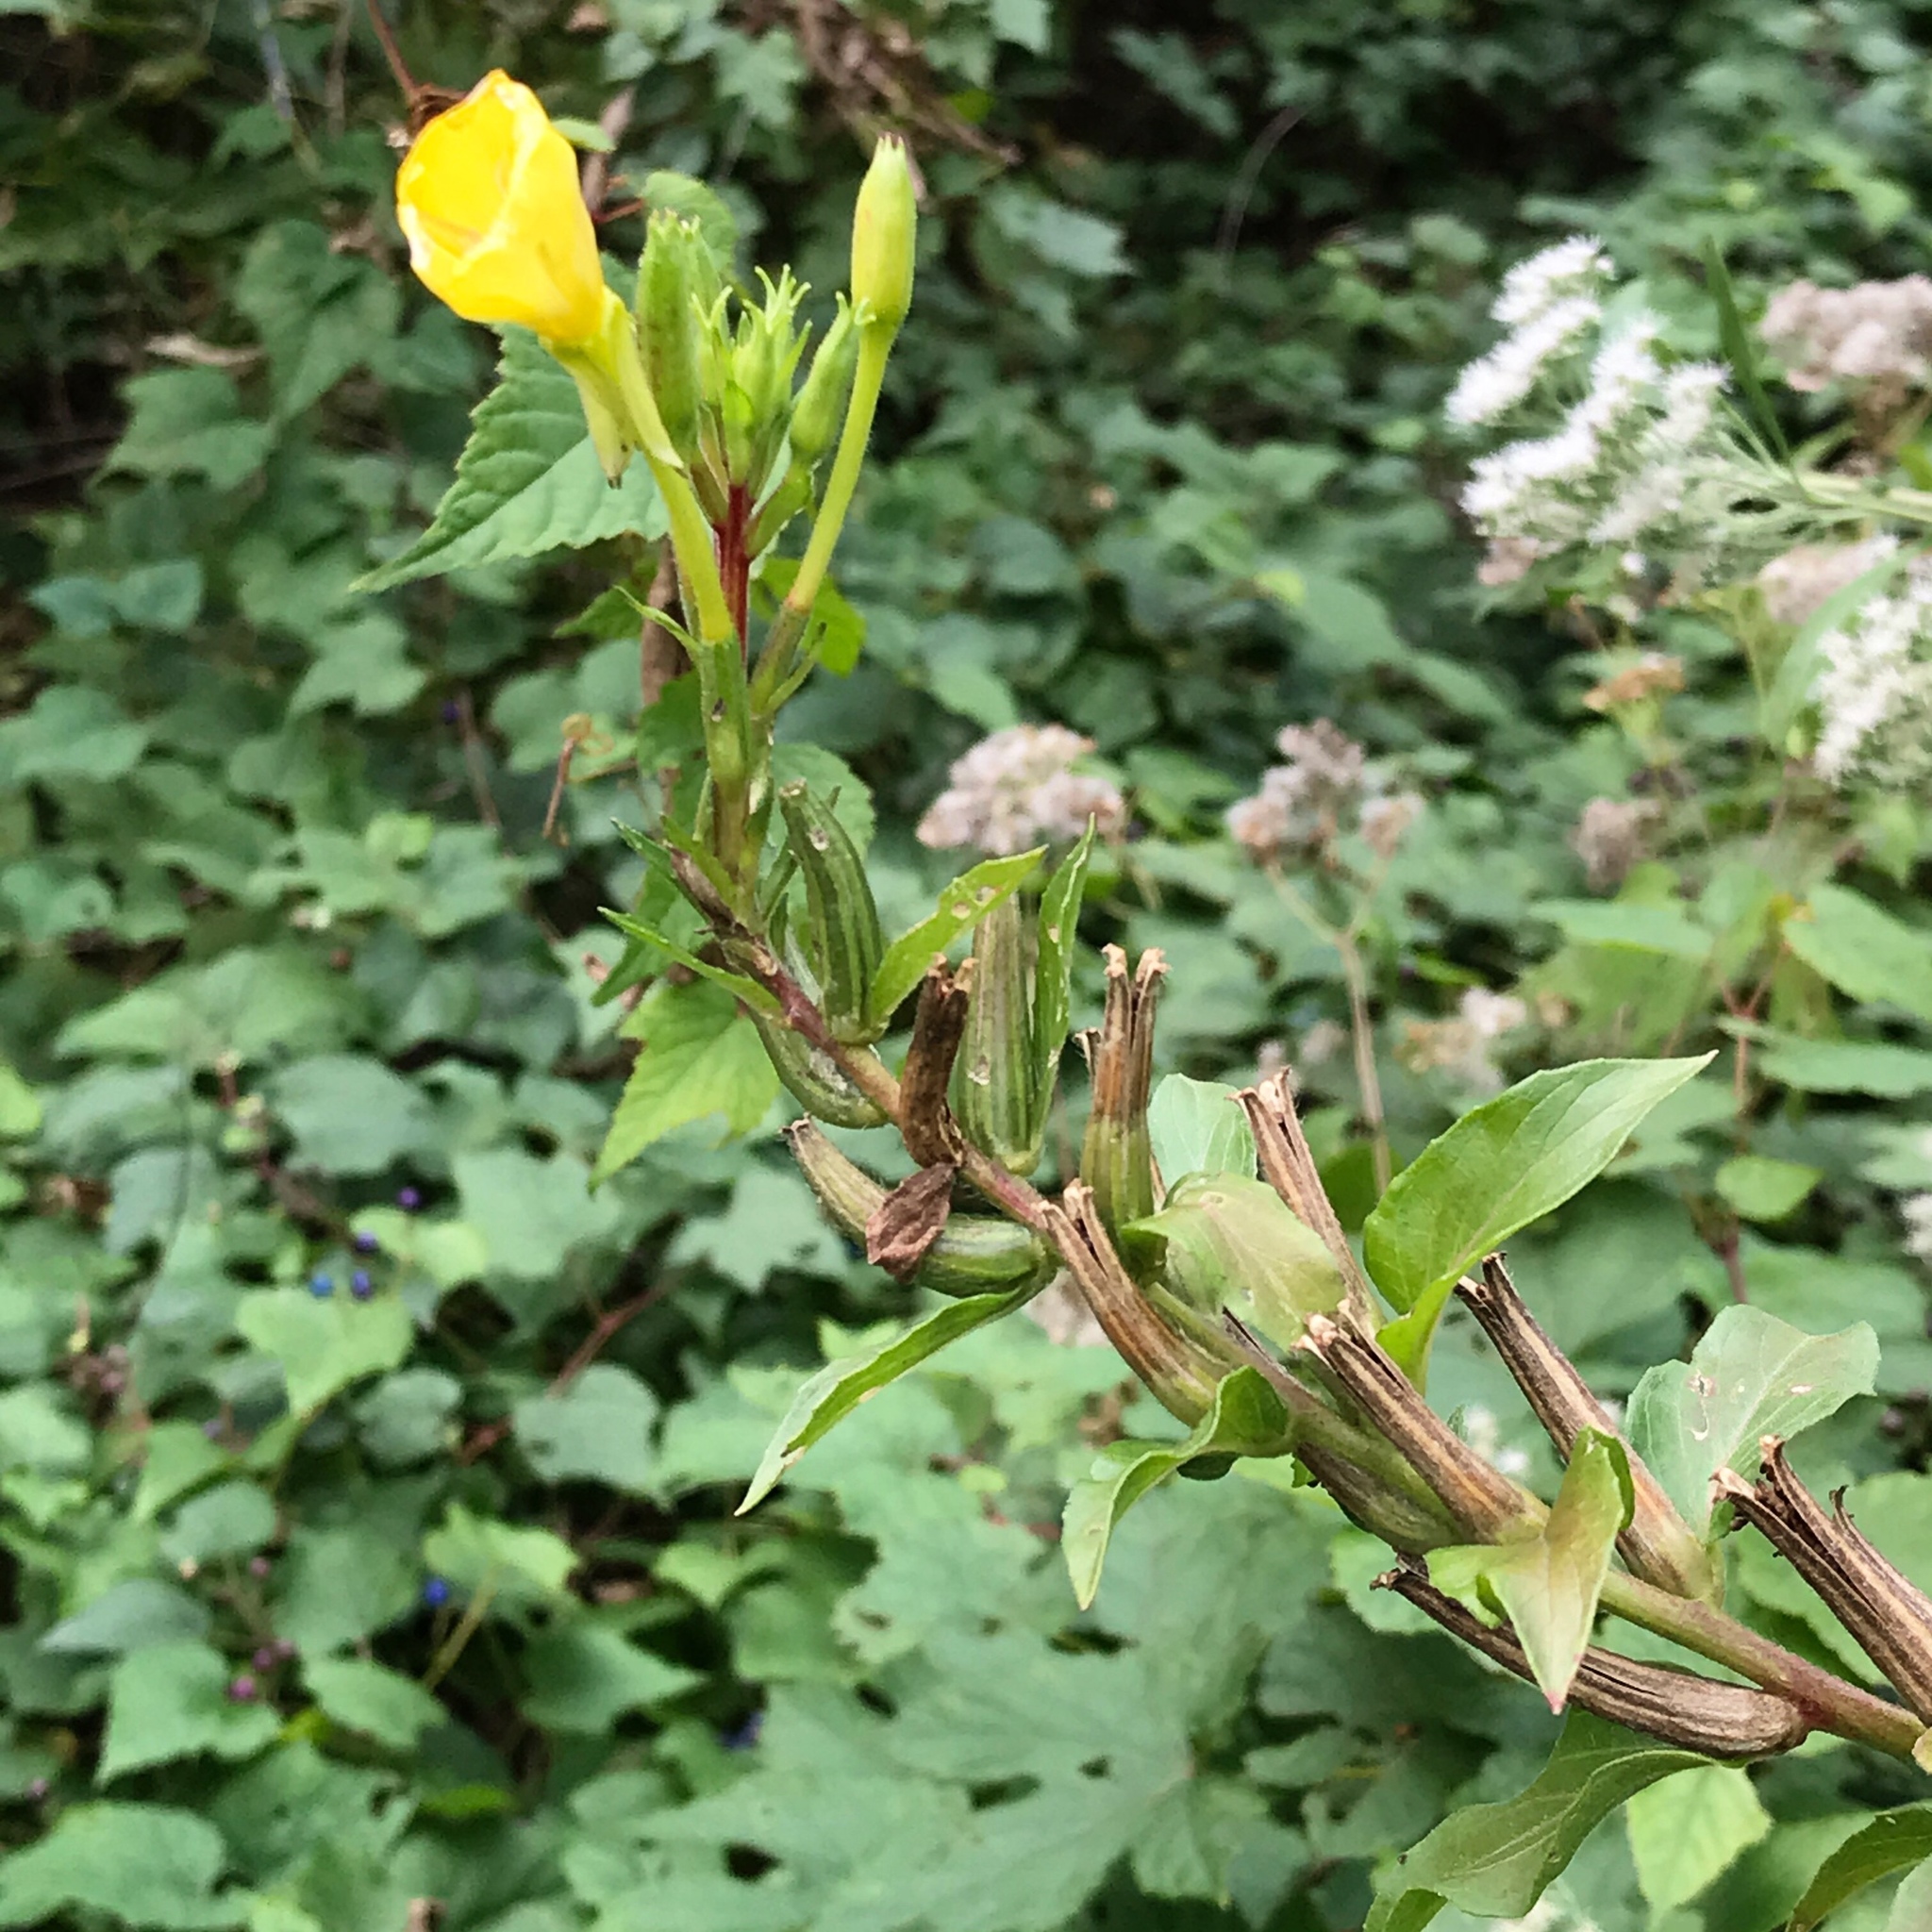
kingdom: Plantae
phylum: Tracheophyta
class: Magnoliopsida
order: Myrtales
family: Onagraceae
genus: Oenothera
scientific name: Oenothera biennis
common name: Common evening-primrose
